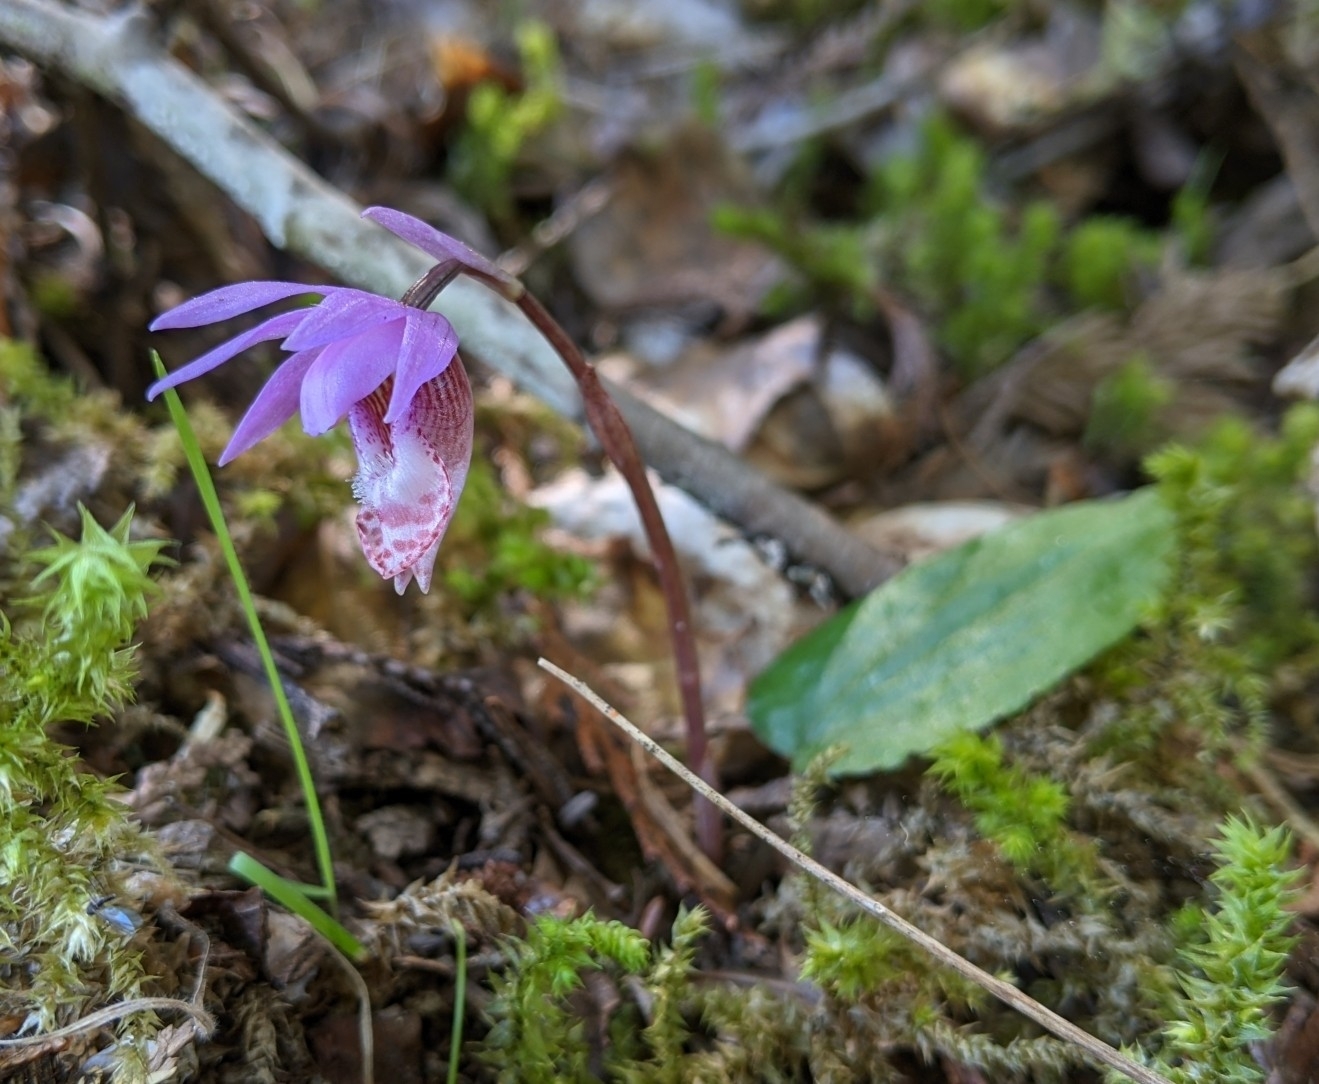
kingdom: Plantae
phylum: Tracheophyta
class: Liliopsida
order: Asparagales
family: Orchidaceae
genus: Calypso
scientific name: Calypso bulbosa
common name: Calypso
